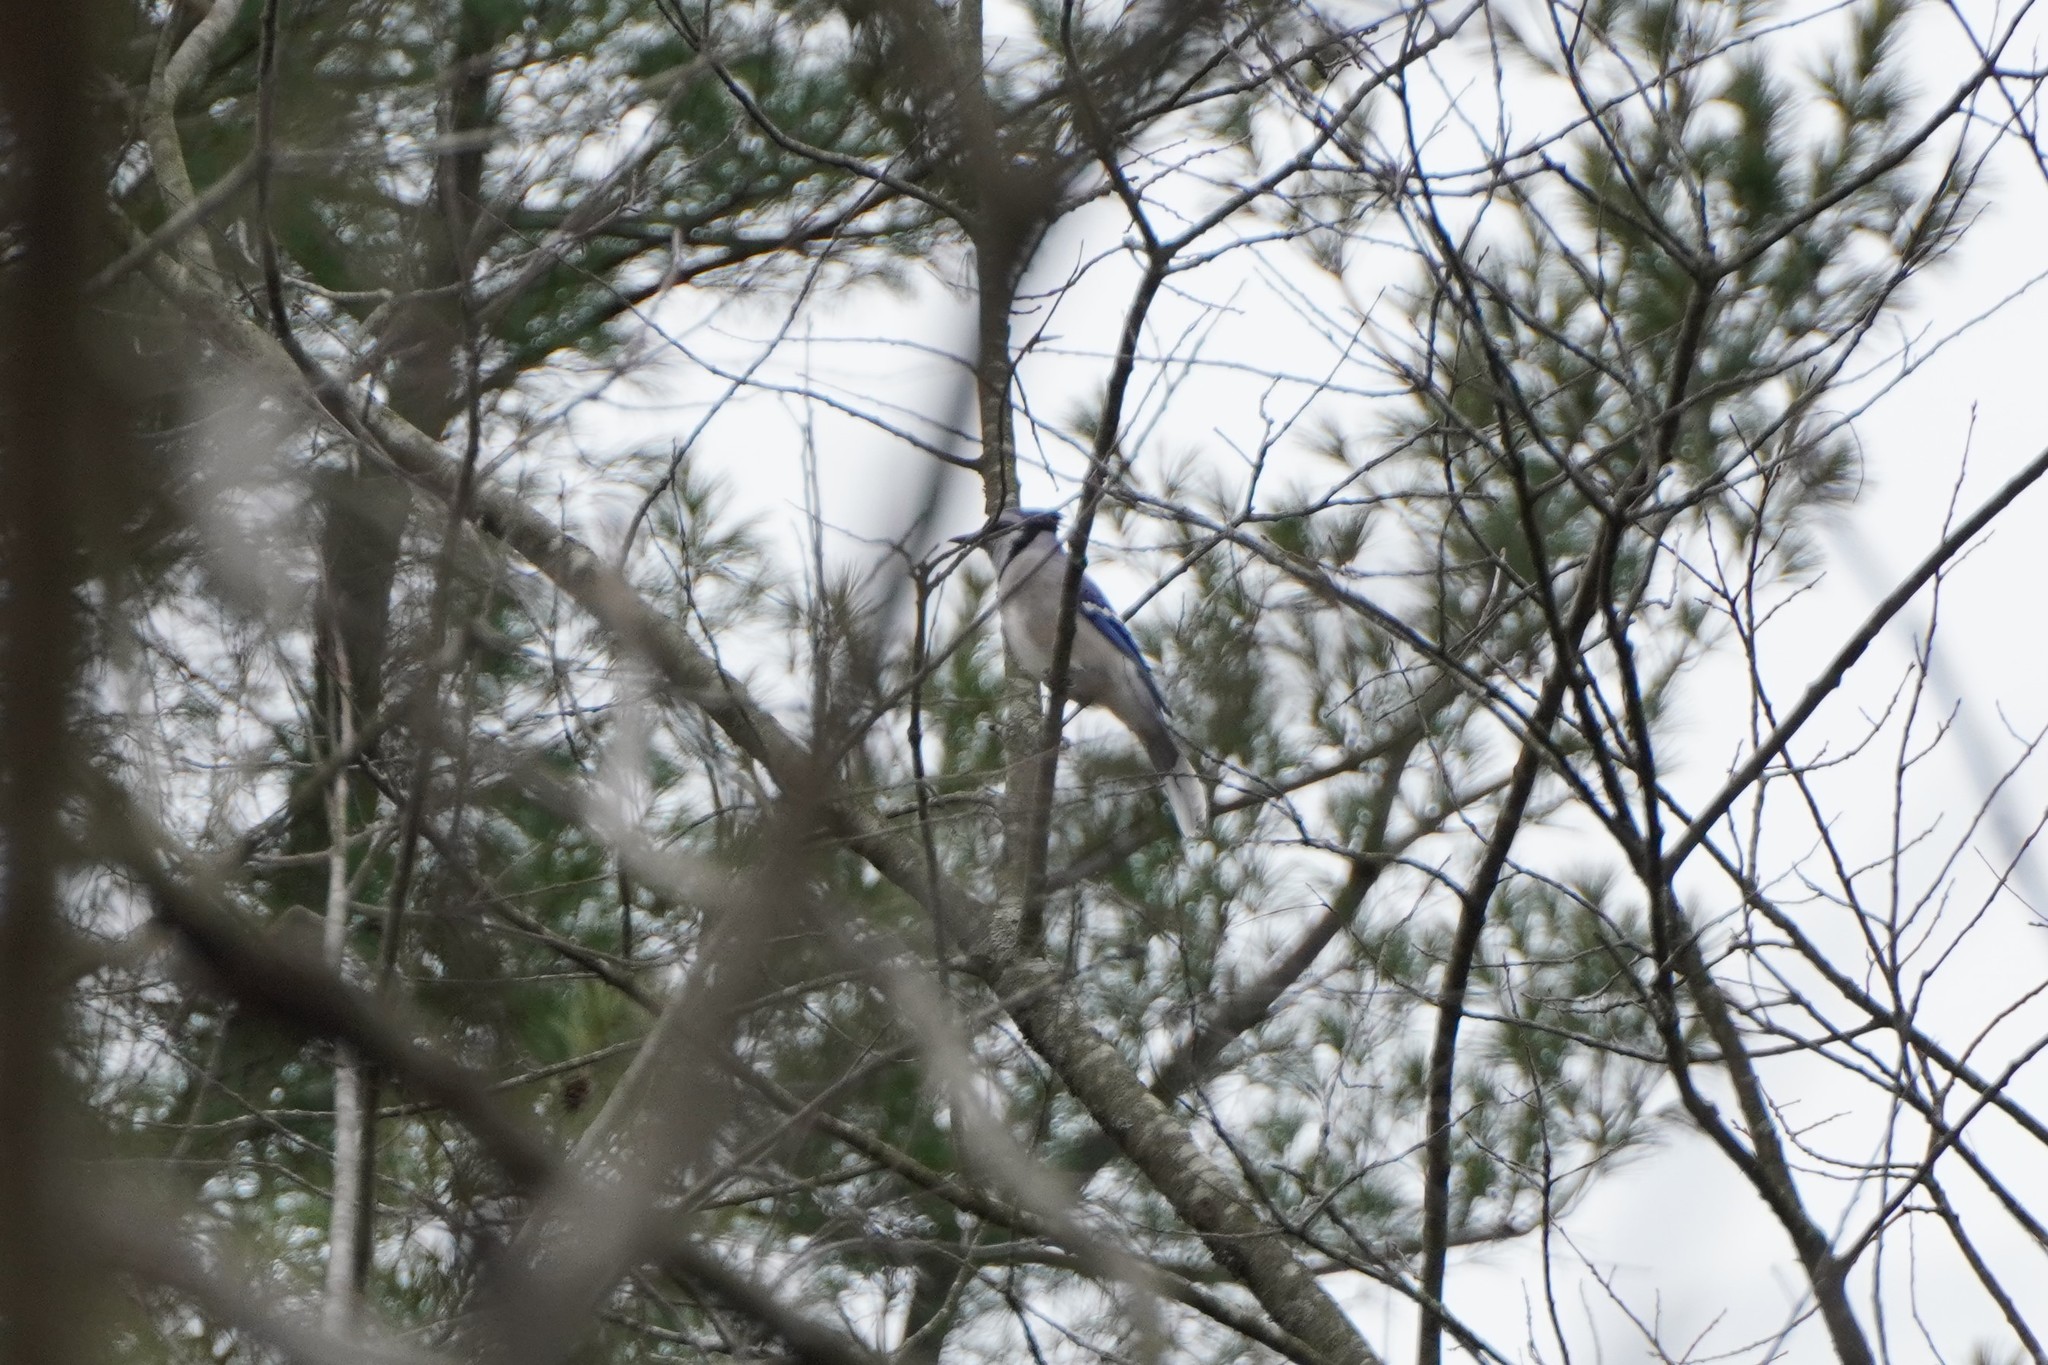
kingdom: Animalia
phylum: Chordata
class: Aves
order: Passeriformes
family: Corvidae
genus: Cyanocitta
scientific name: Cyanocitta cristata
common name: Blue jay
